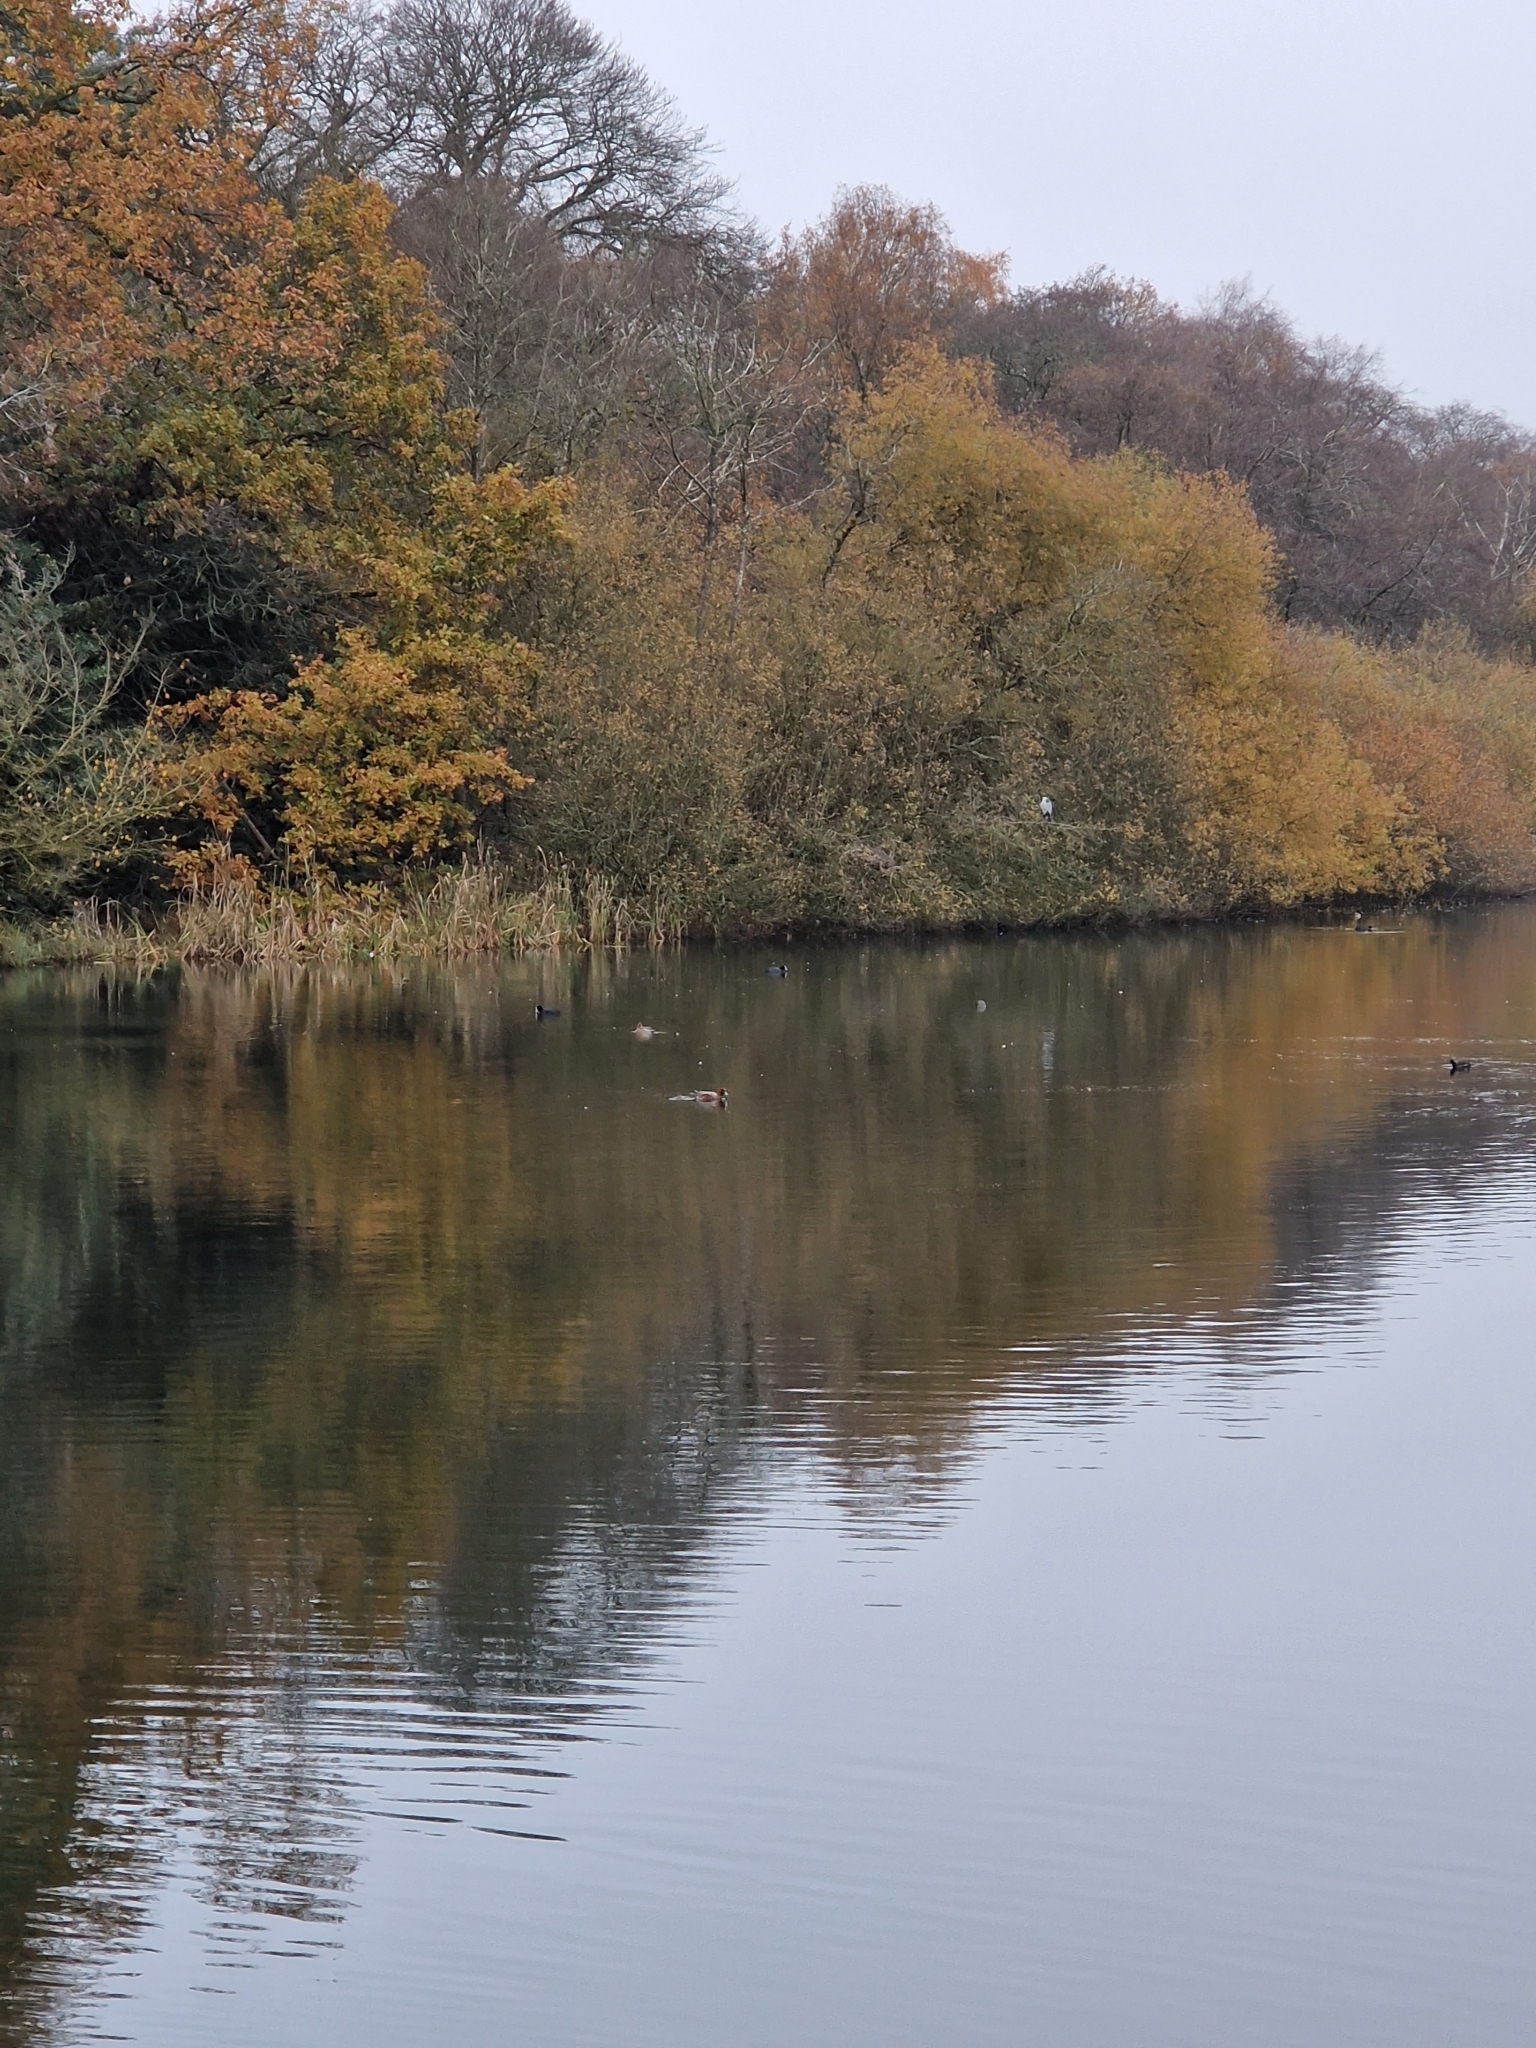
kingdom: Animalia
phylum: Chordata
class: Aves
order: Anseriformes
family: Anatidae
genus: Mareca
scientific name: Mareca penelope
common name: Eurasian wigeon
